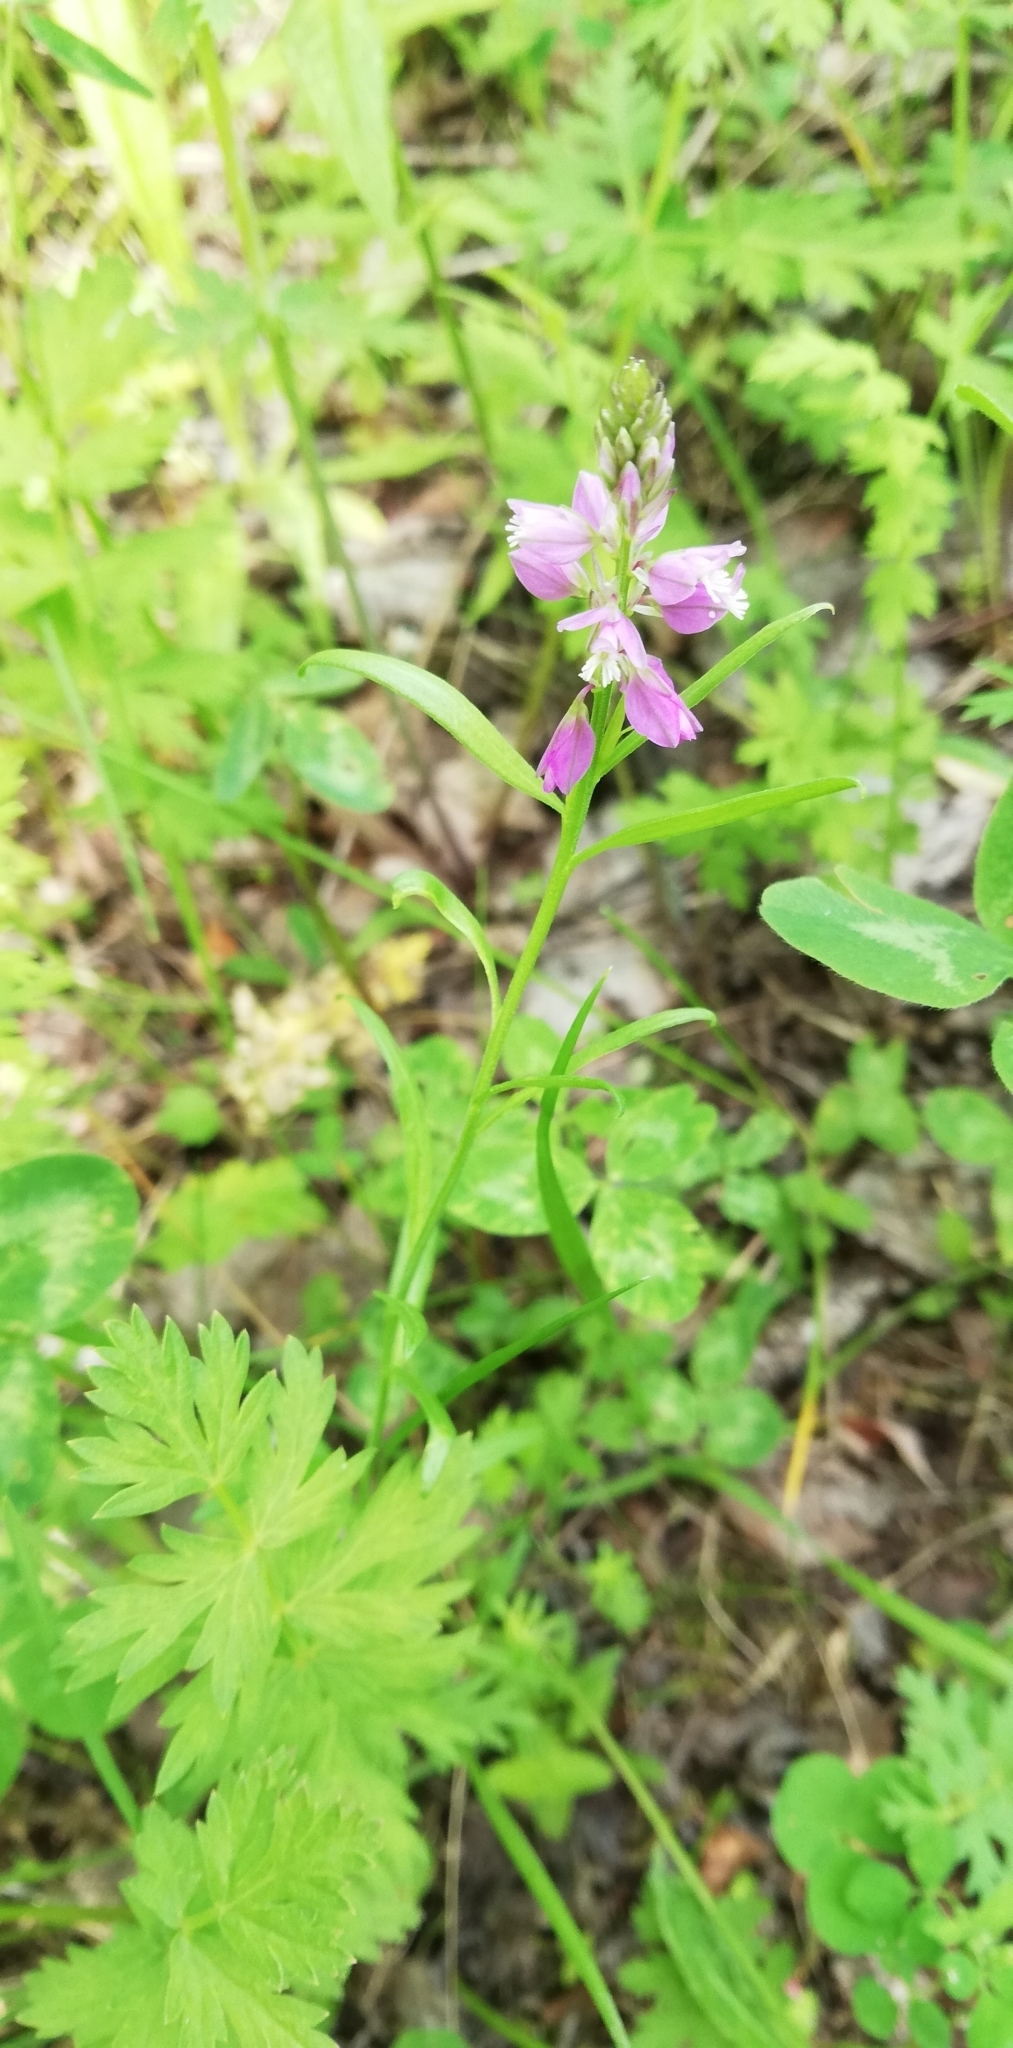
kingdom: Plantae
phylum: Tracheophyta
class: Magnoliopsida
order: Fabales
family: Polygalaceae
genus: Polygala
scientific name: Polygala comosa
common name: Tufted milkwort
